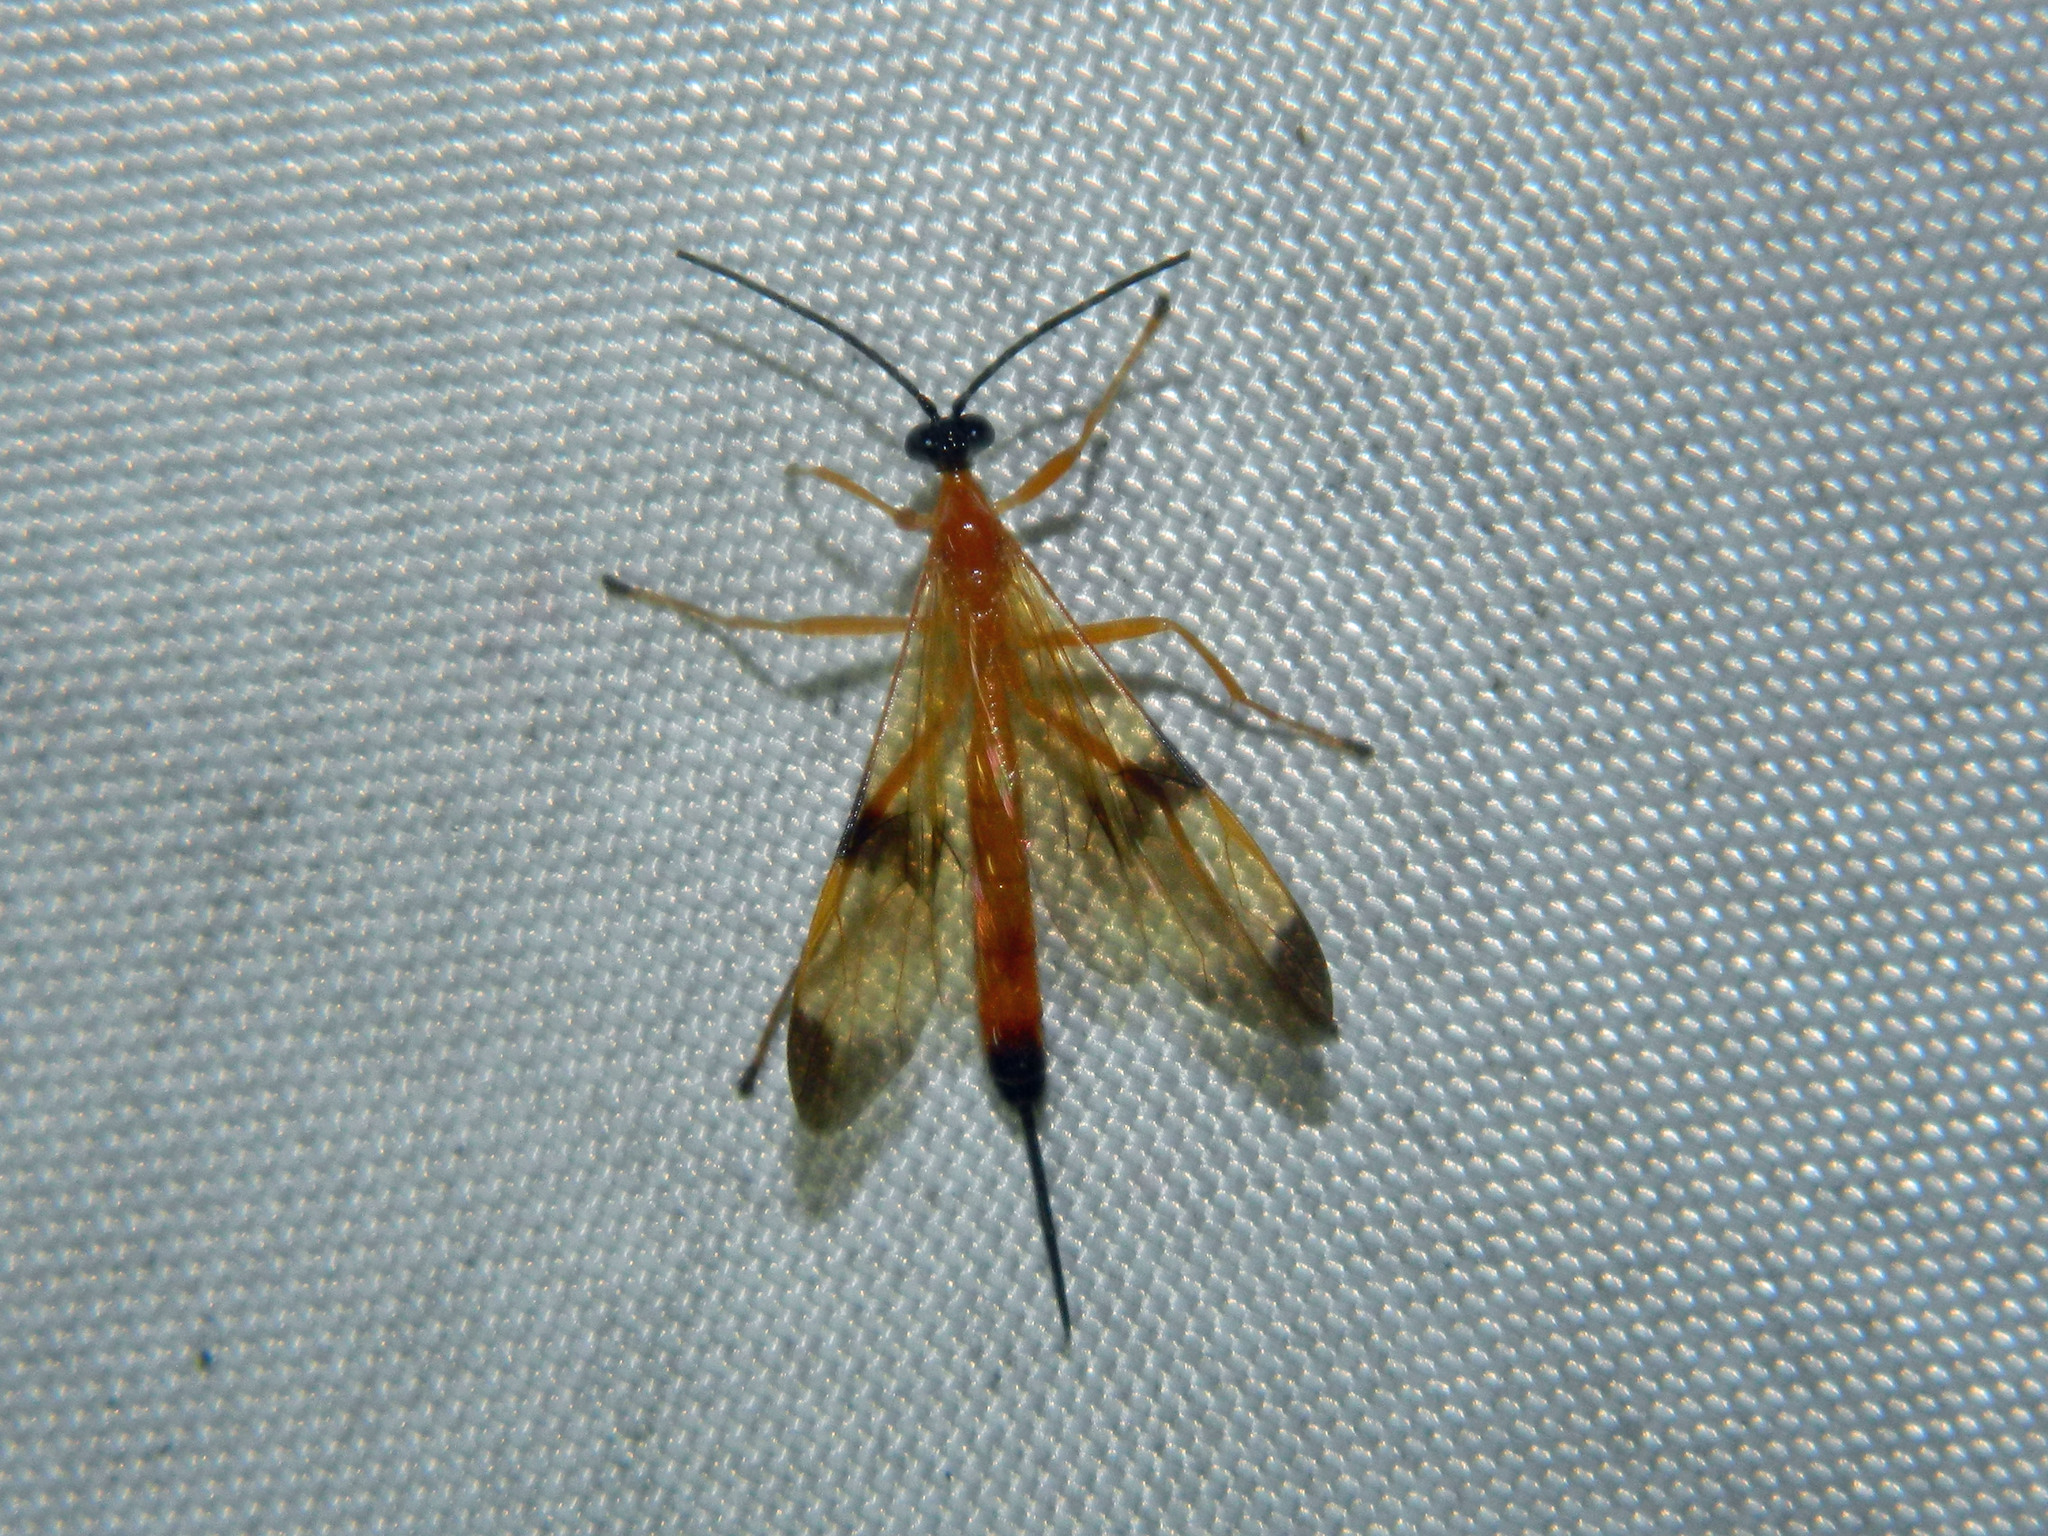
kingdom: Animalia
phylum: Arthropoda
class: Insecta
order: Hymenoptera
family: Ichneumonidae
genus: Acrotaphus
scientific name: Acrotaphus wiltii
